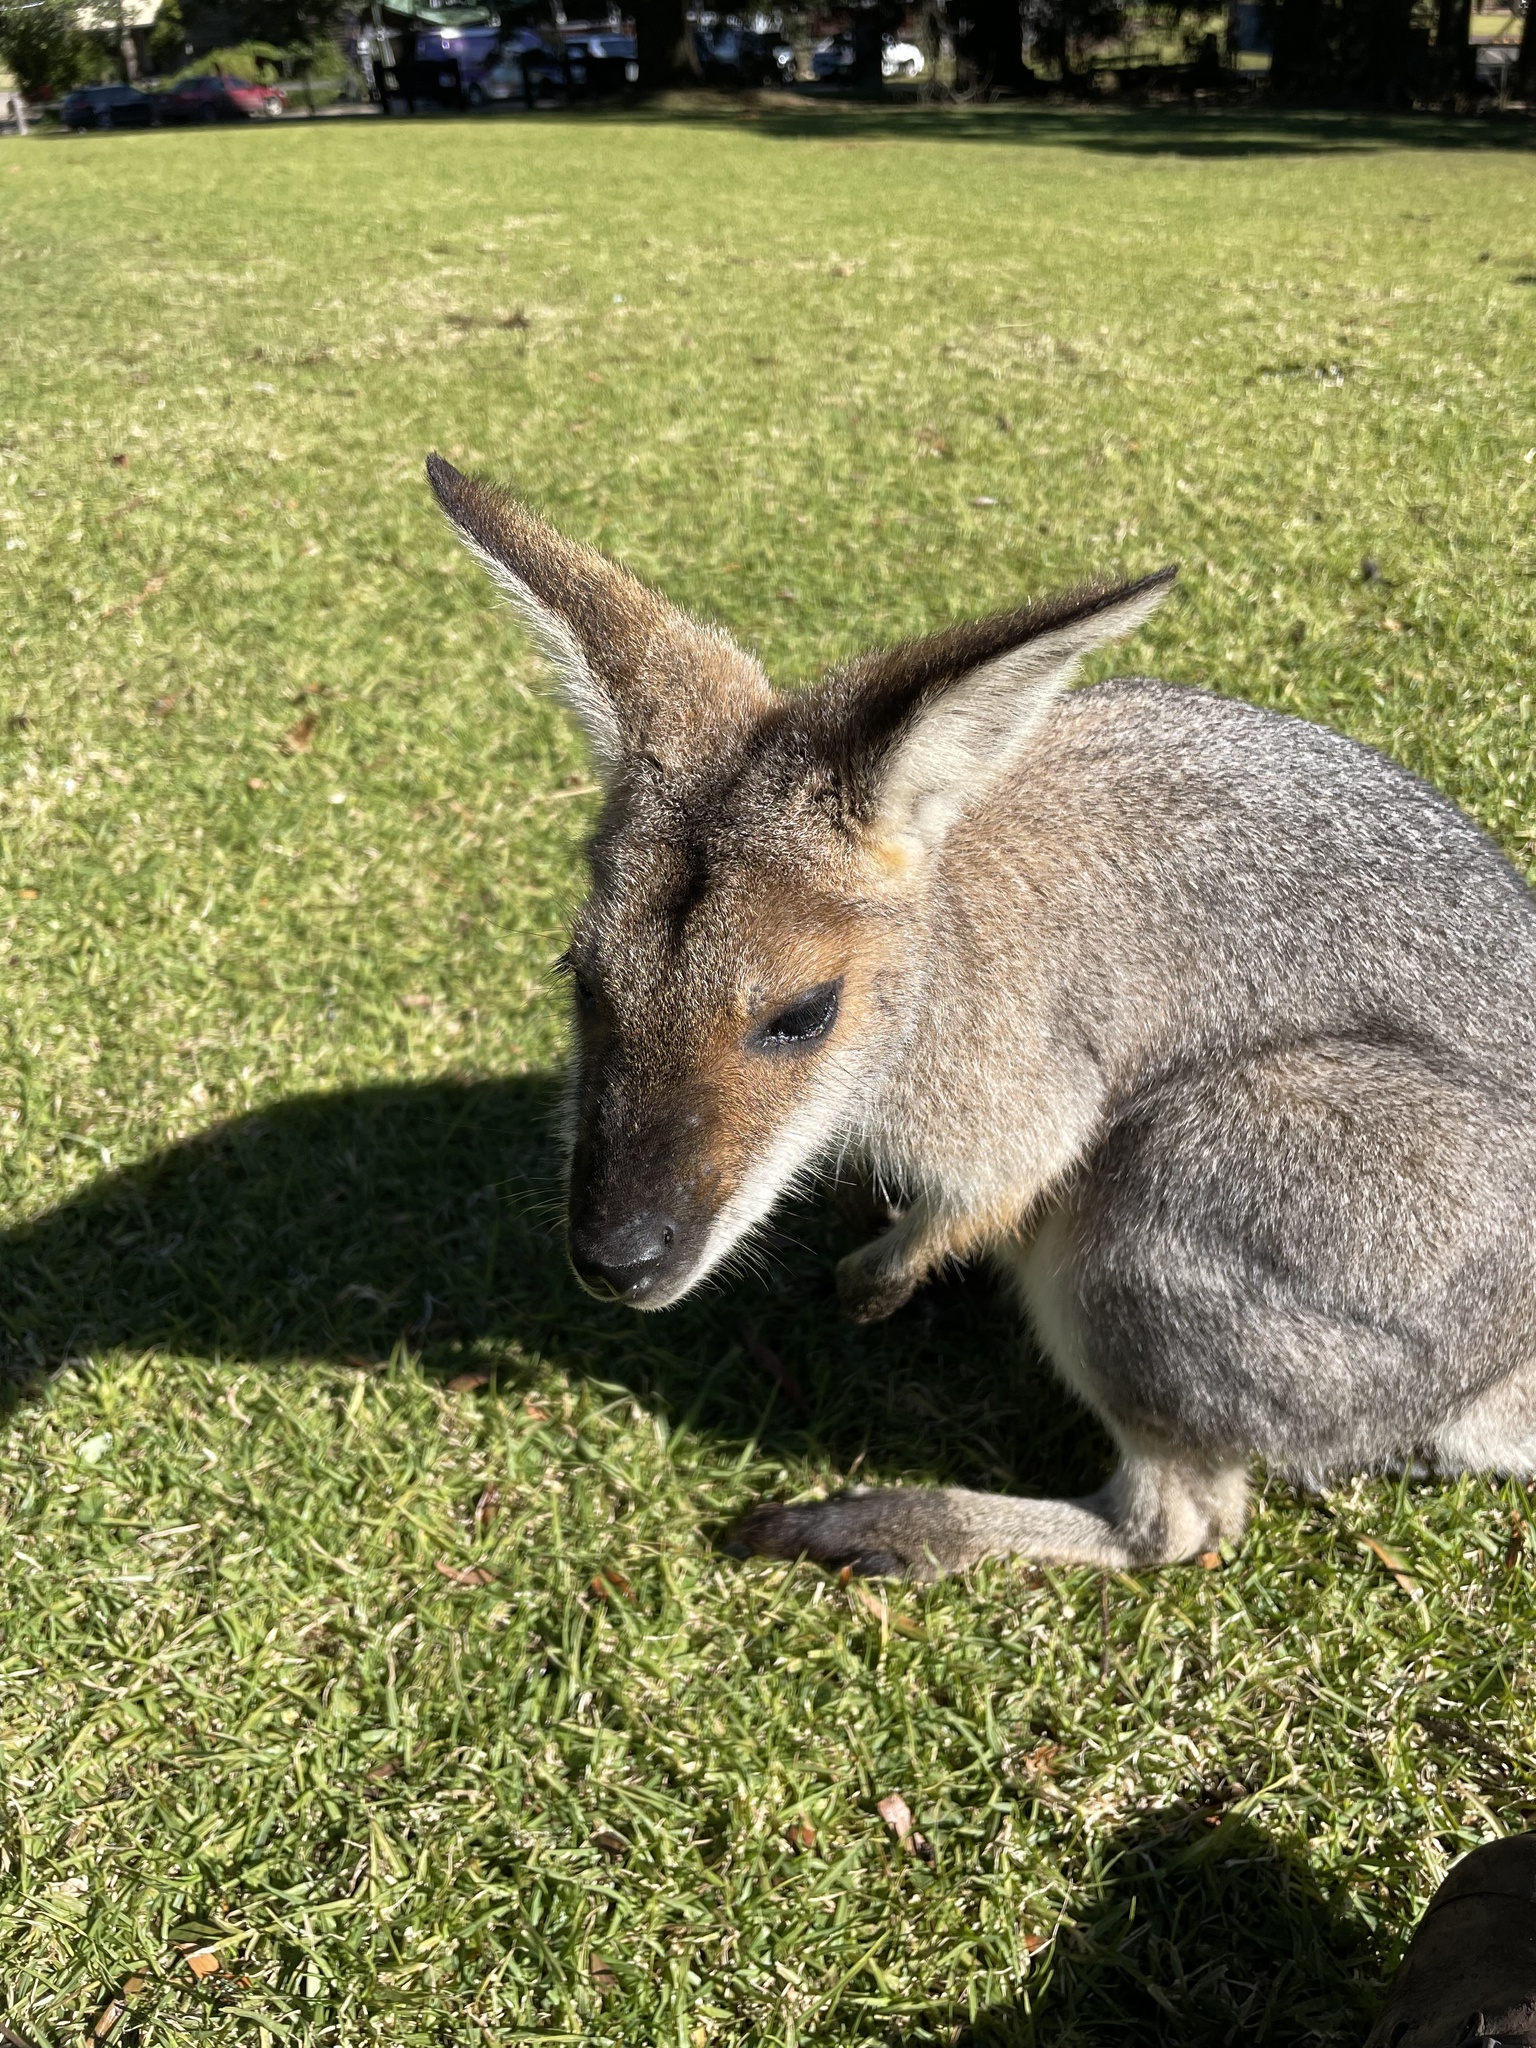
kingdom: Animalia
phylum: Chordata
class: Mammalia
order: Diprotodontia
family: Macropodidae
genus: Notamacropus
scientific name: Notamacropus rufogriseus
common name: Red-necked wallaby
